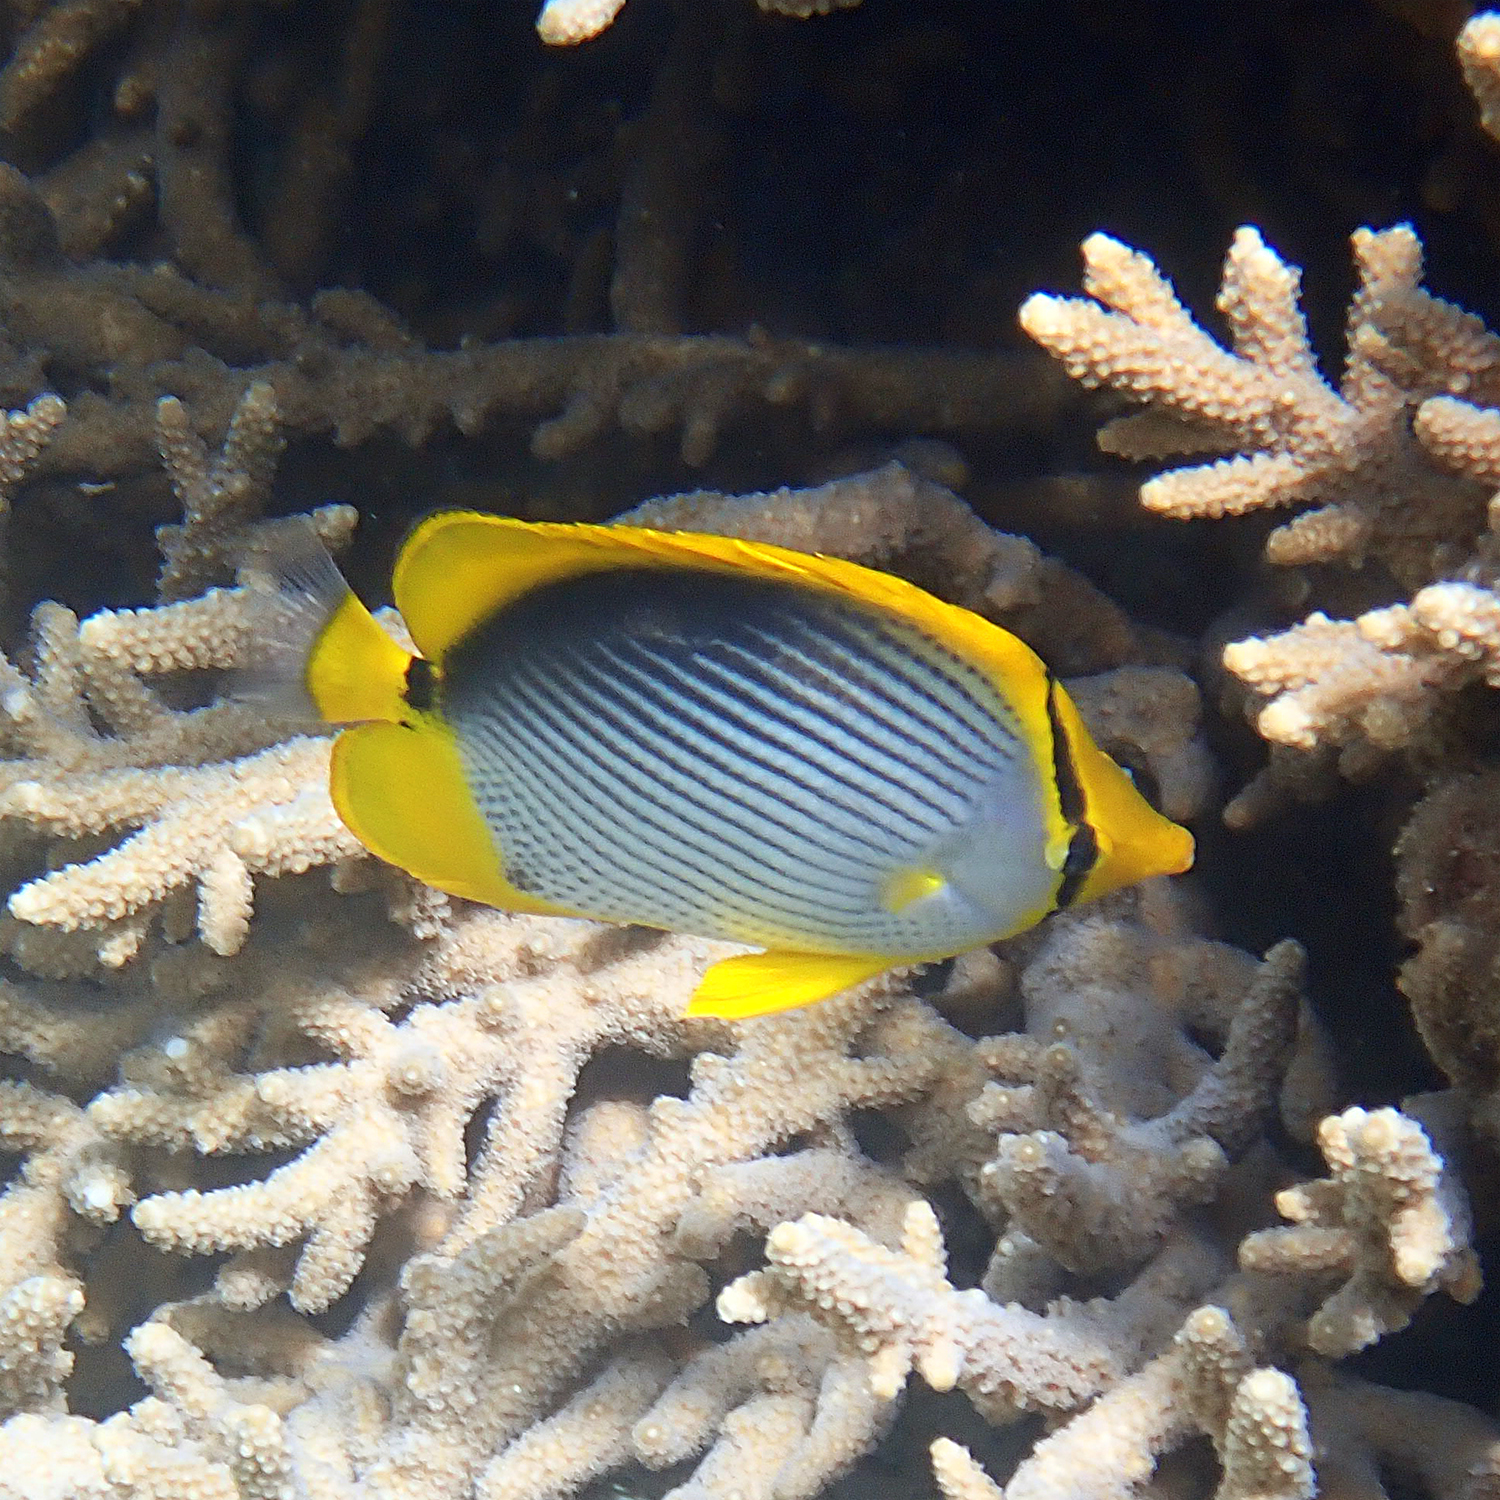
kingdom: Animalia
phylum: Chordata
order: Perciformes
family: Chaetodontidae
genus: Chaetodon
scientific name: Chaetodon melannotus
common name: Blackback butterflyfish
